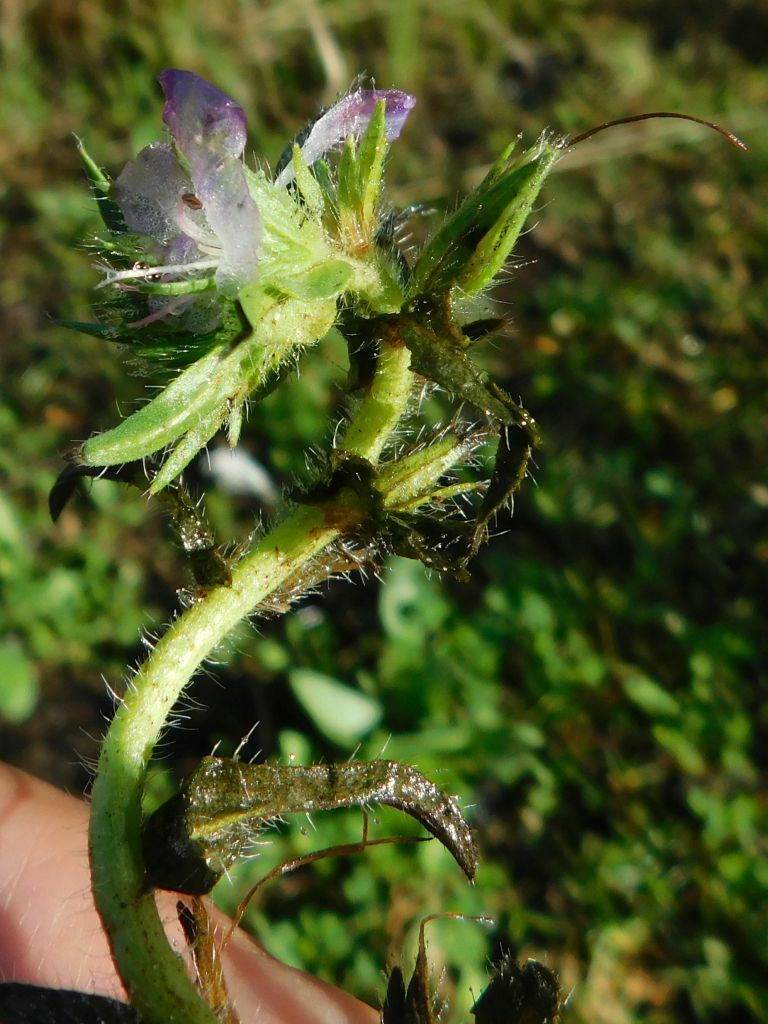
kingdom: Plantae
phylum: Tracheophyta
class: Magnoliopsida
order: Boraginales
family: Boraginaceae
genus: Echium
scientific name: Echium plantagineum
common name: Purple viper's-bugloss
